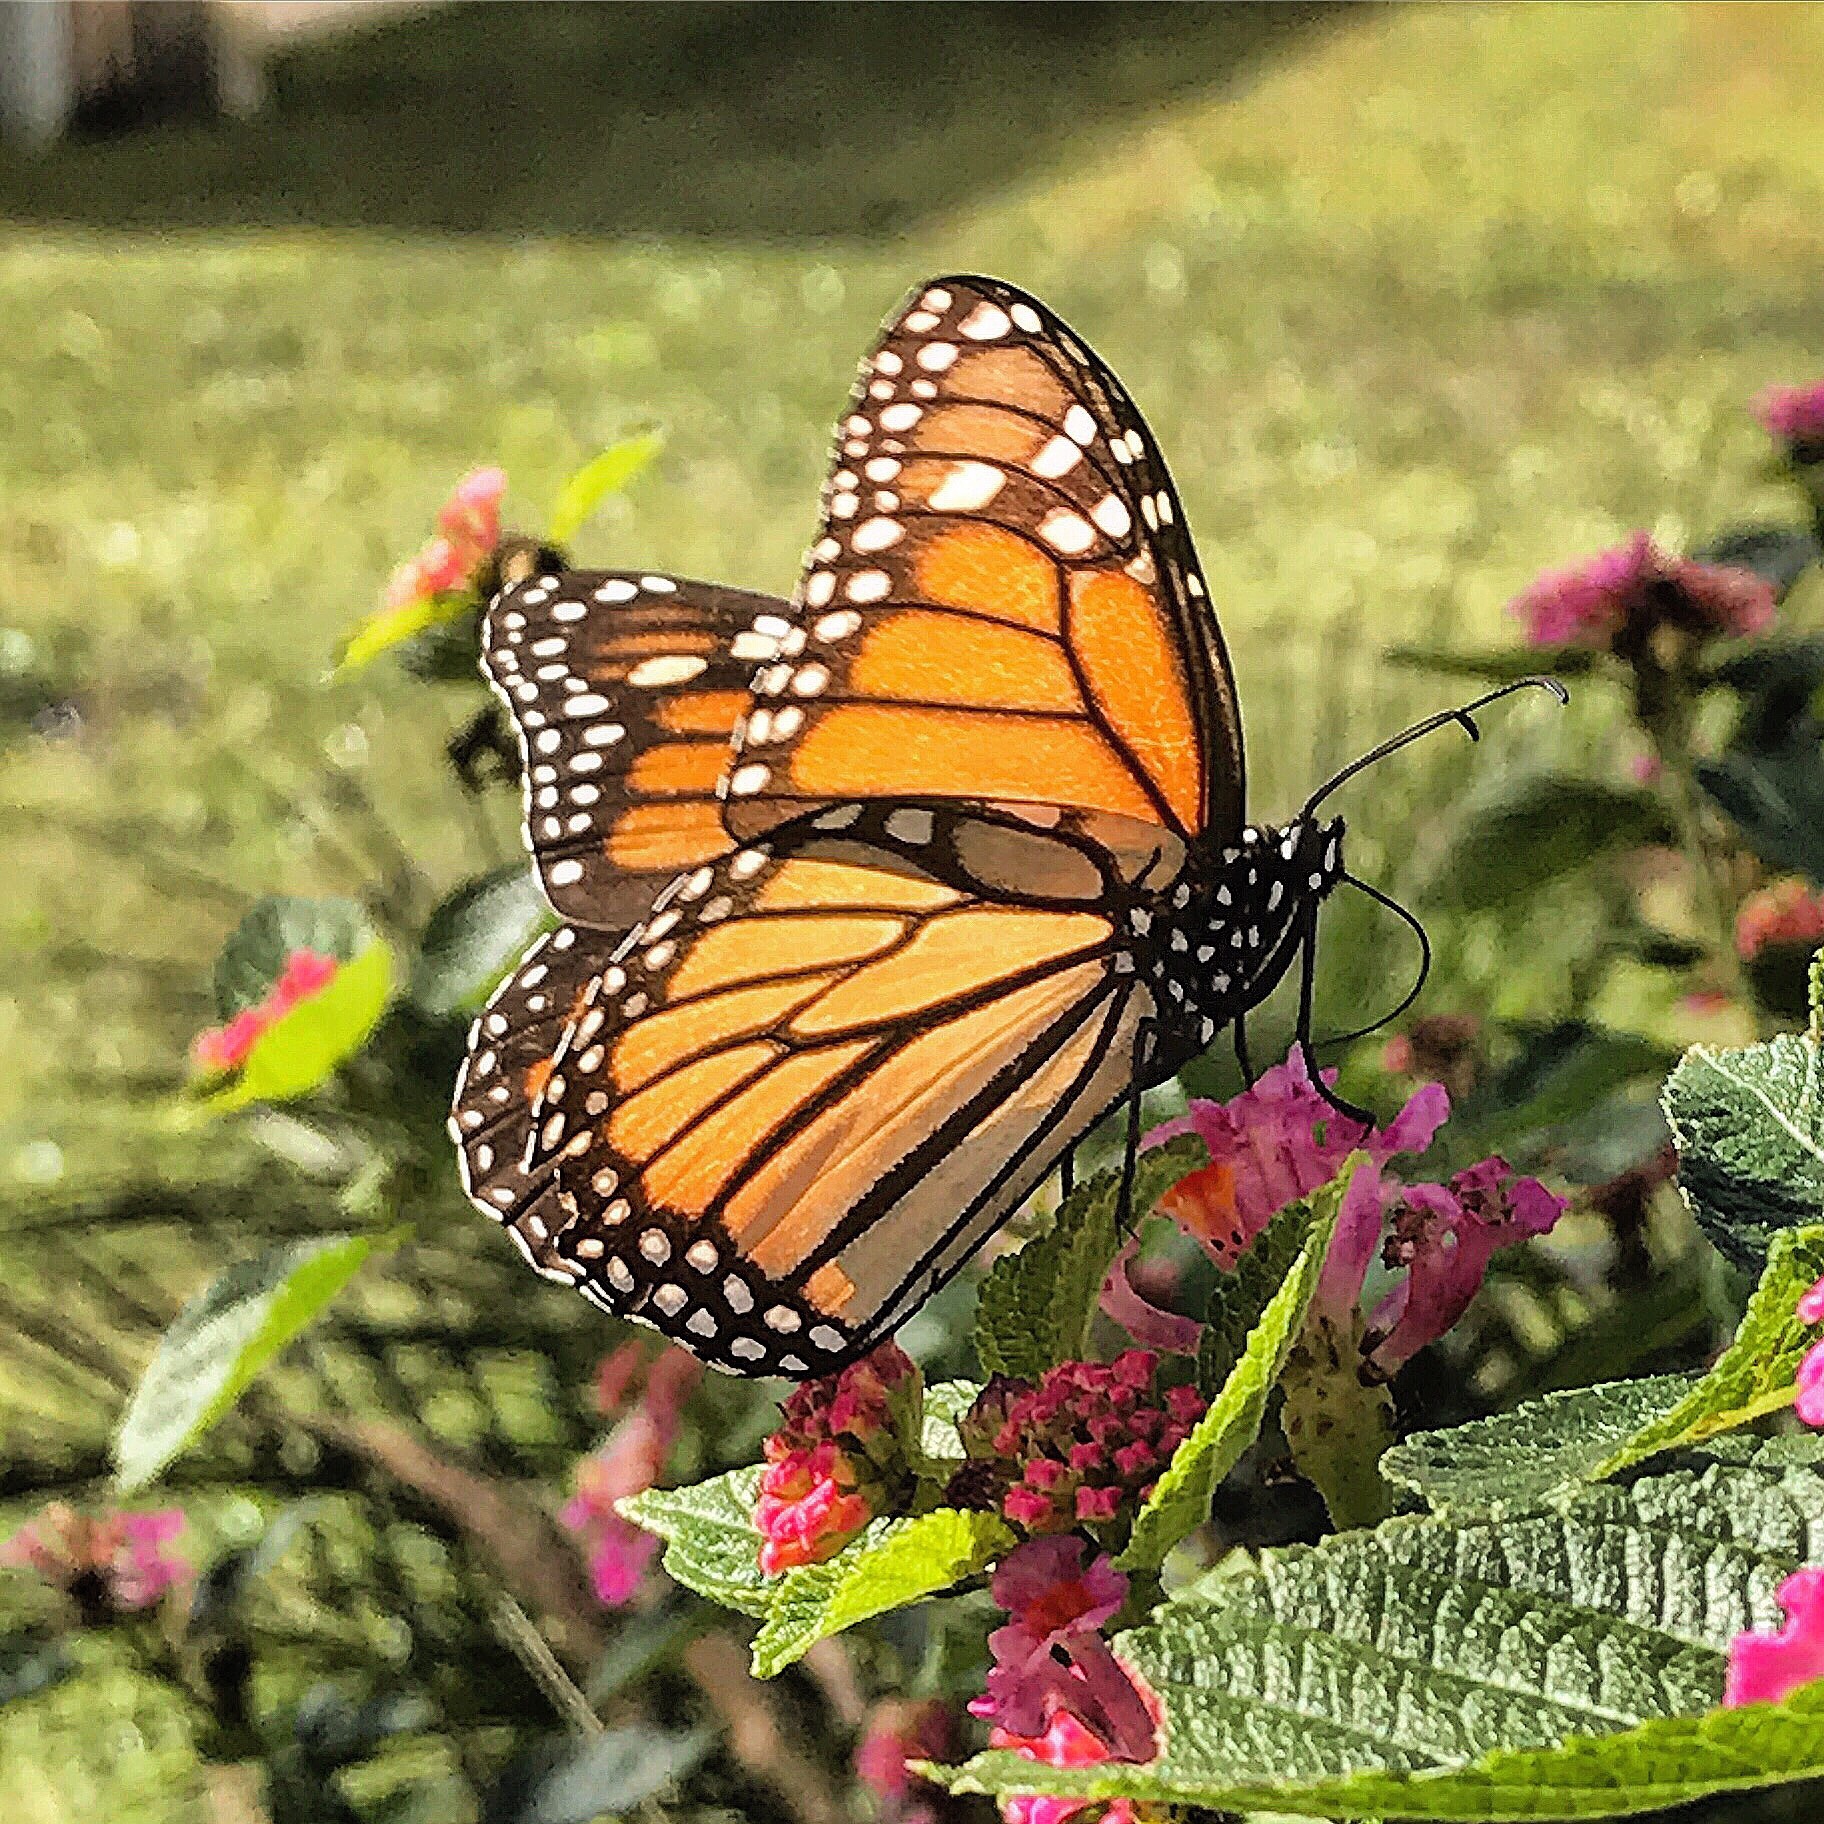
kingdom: Animalia
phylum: Arthropoda
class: Insecta
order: Lepidoptera
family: Nymphalidae
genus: Danaus
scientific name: Danaus plexippus
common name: Monarch
